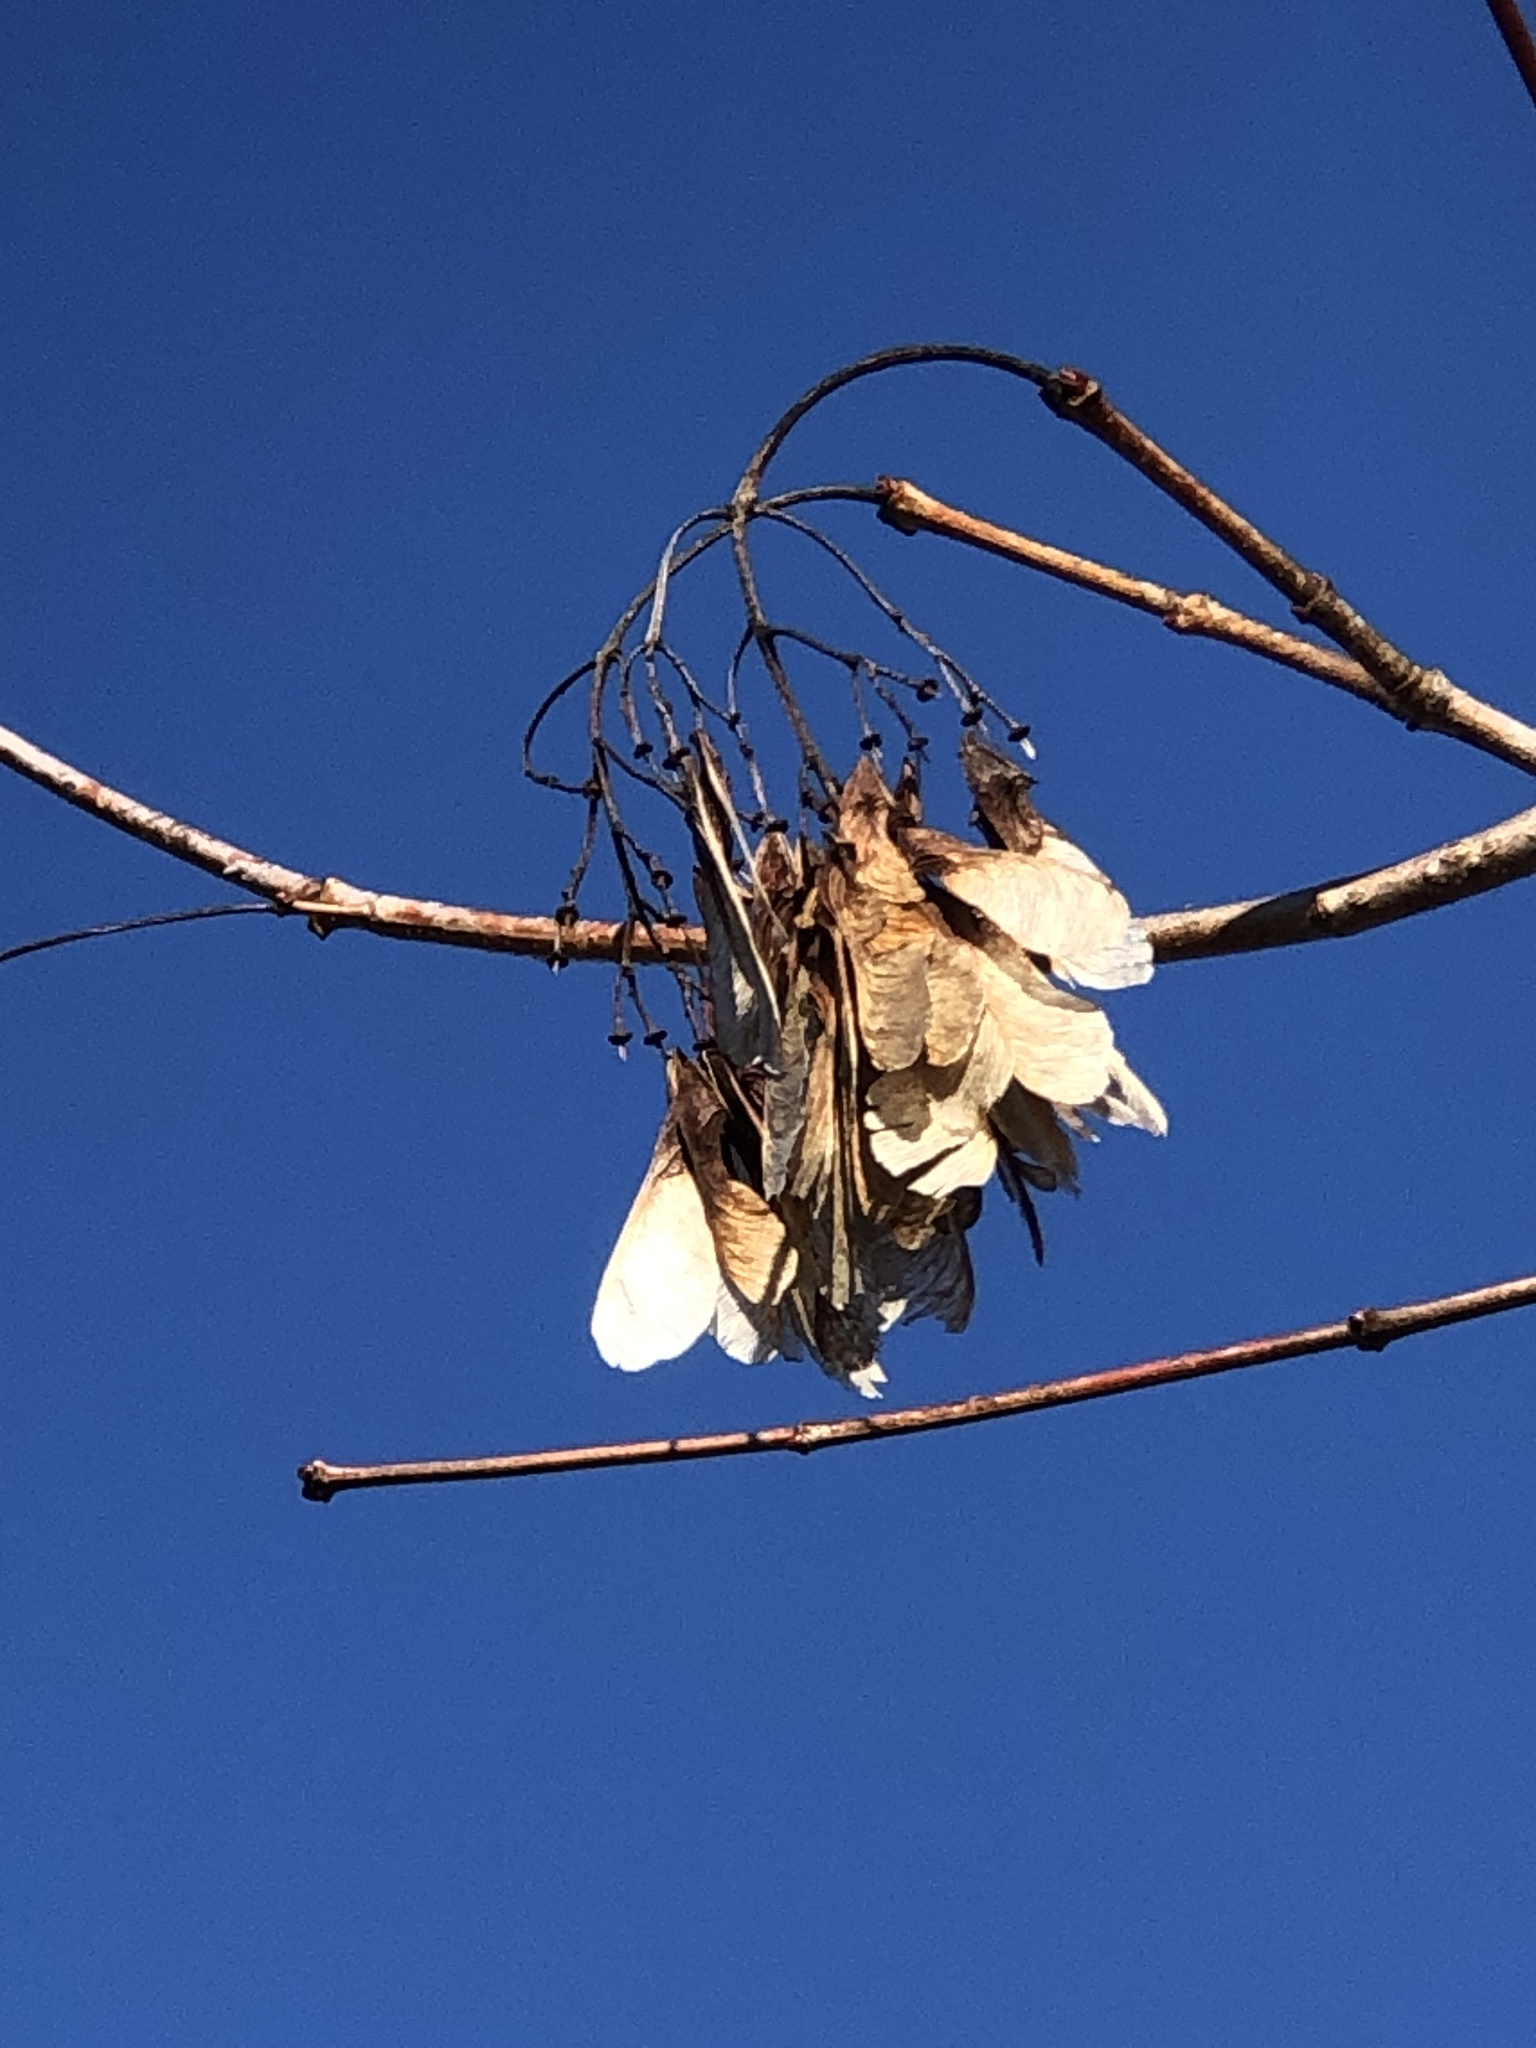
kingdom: Plantae
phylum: Tracheophyta
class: Magnoliopsida
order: Sapindales
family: Sapindaceae
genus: Acer
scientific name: Acer tataricum
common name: Tartar maple
